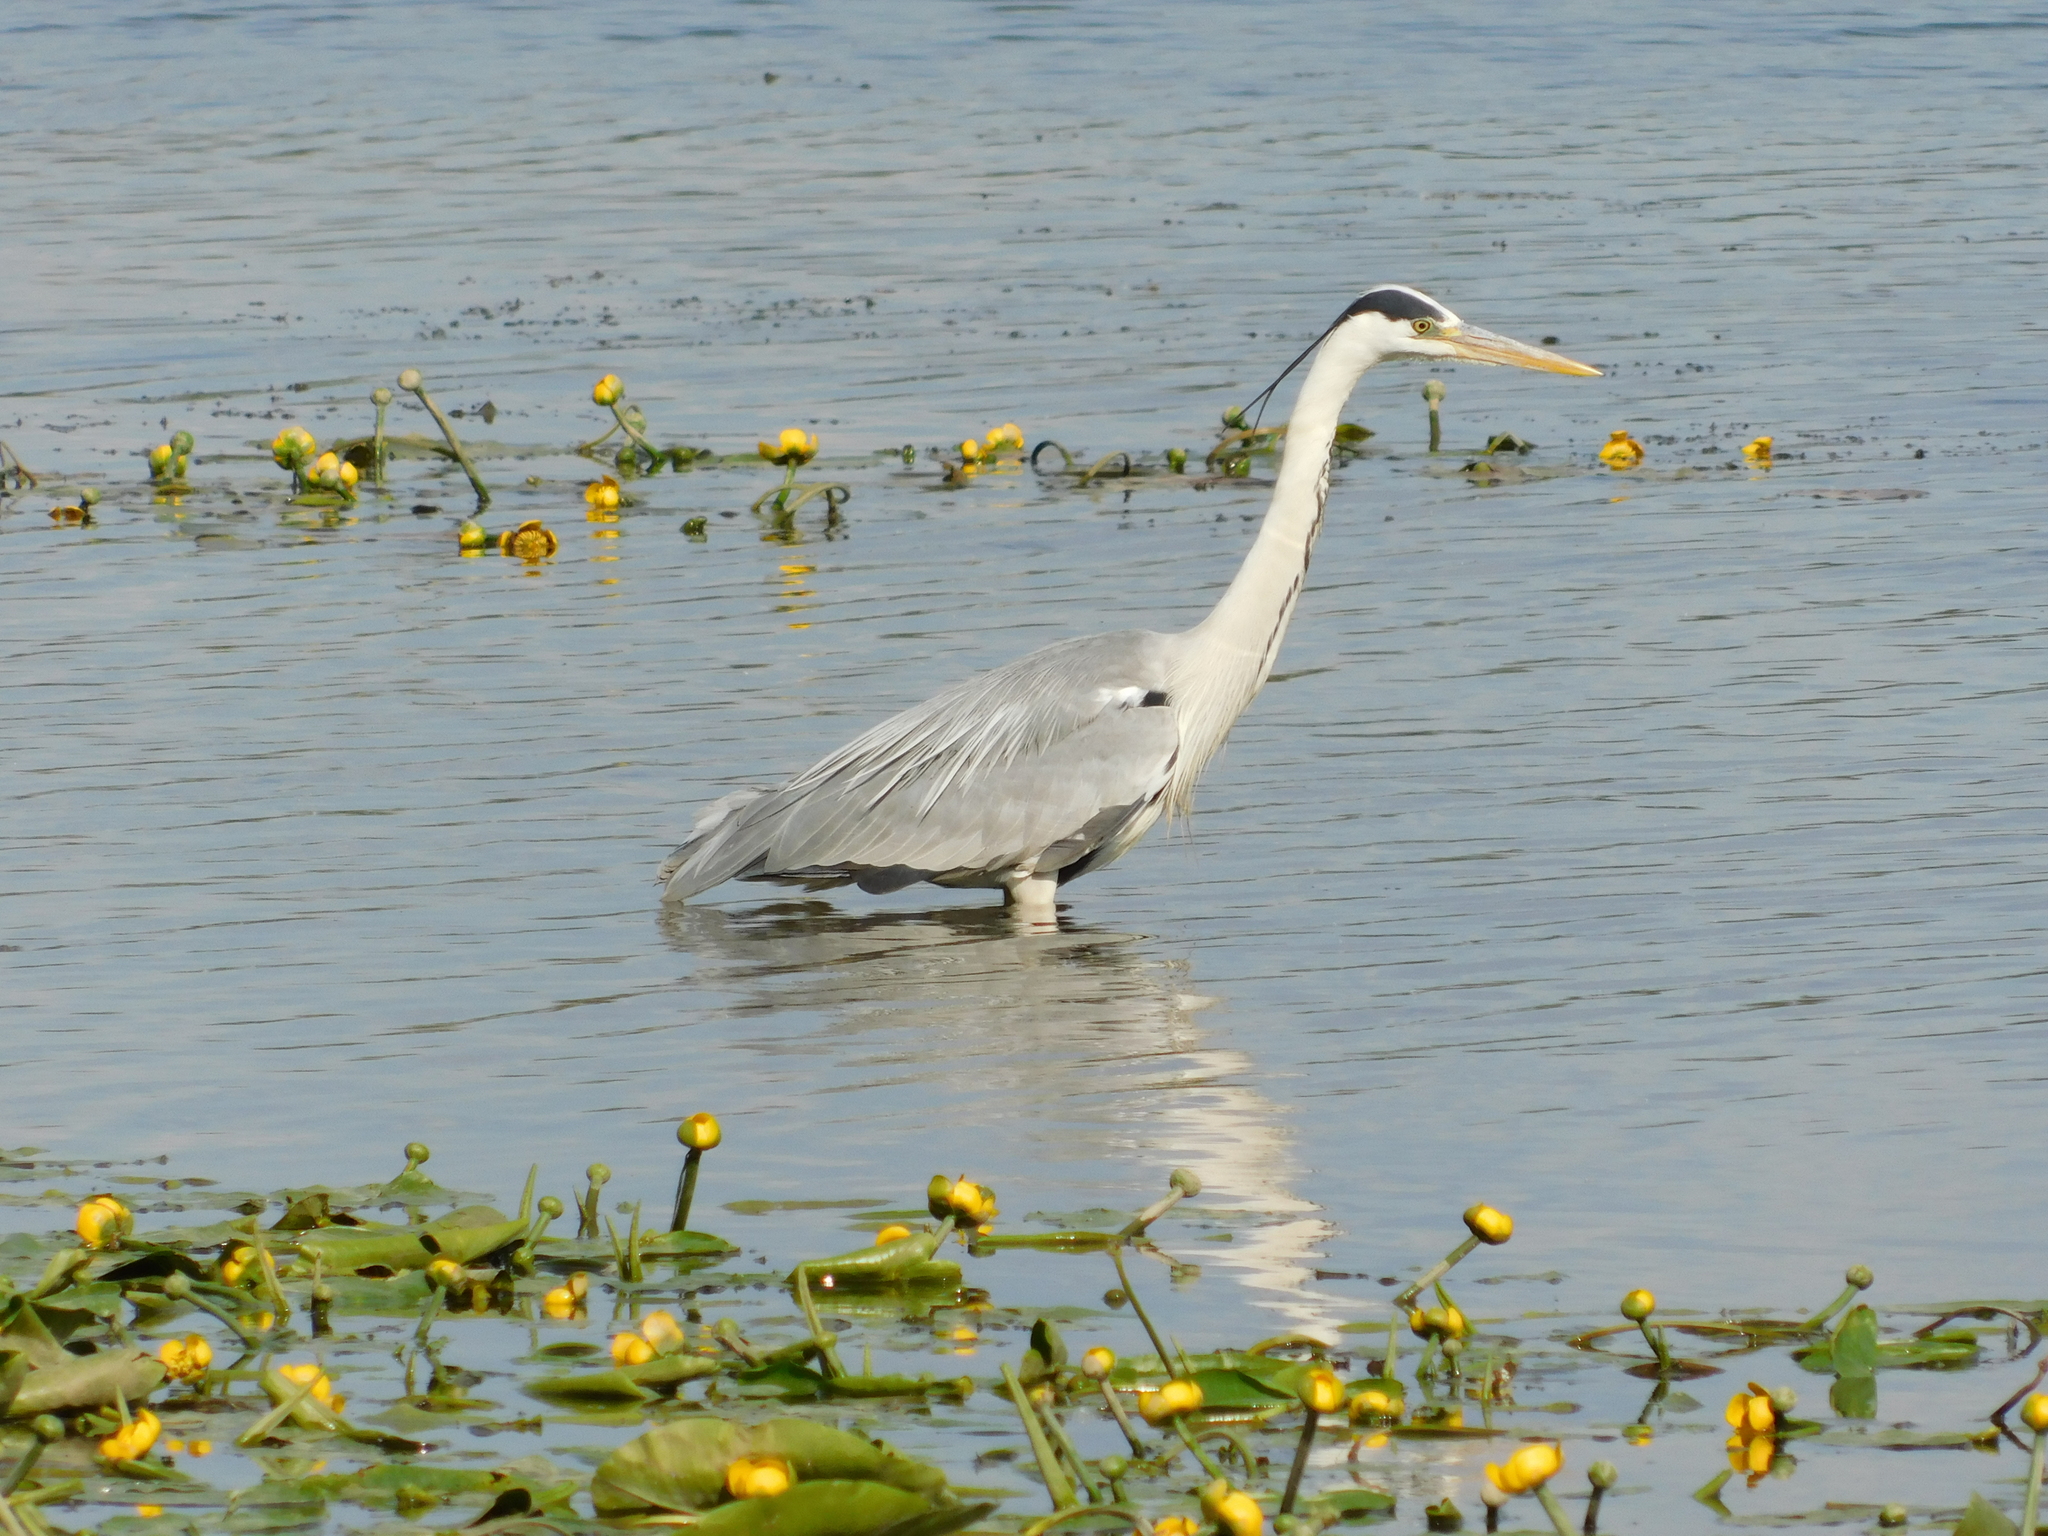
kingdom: Animalia
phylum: Chordata
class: Aves
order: Pelecaniformes
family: Ardeidae
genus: Ardea
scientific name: Ardea cinerea
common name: Grey heron
